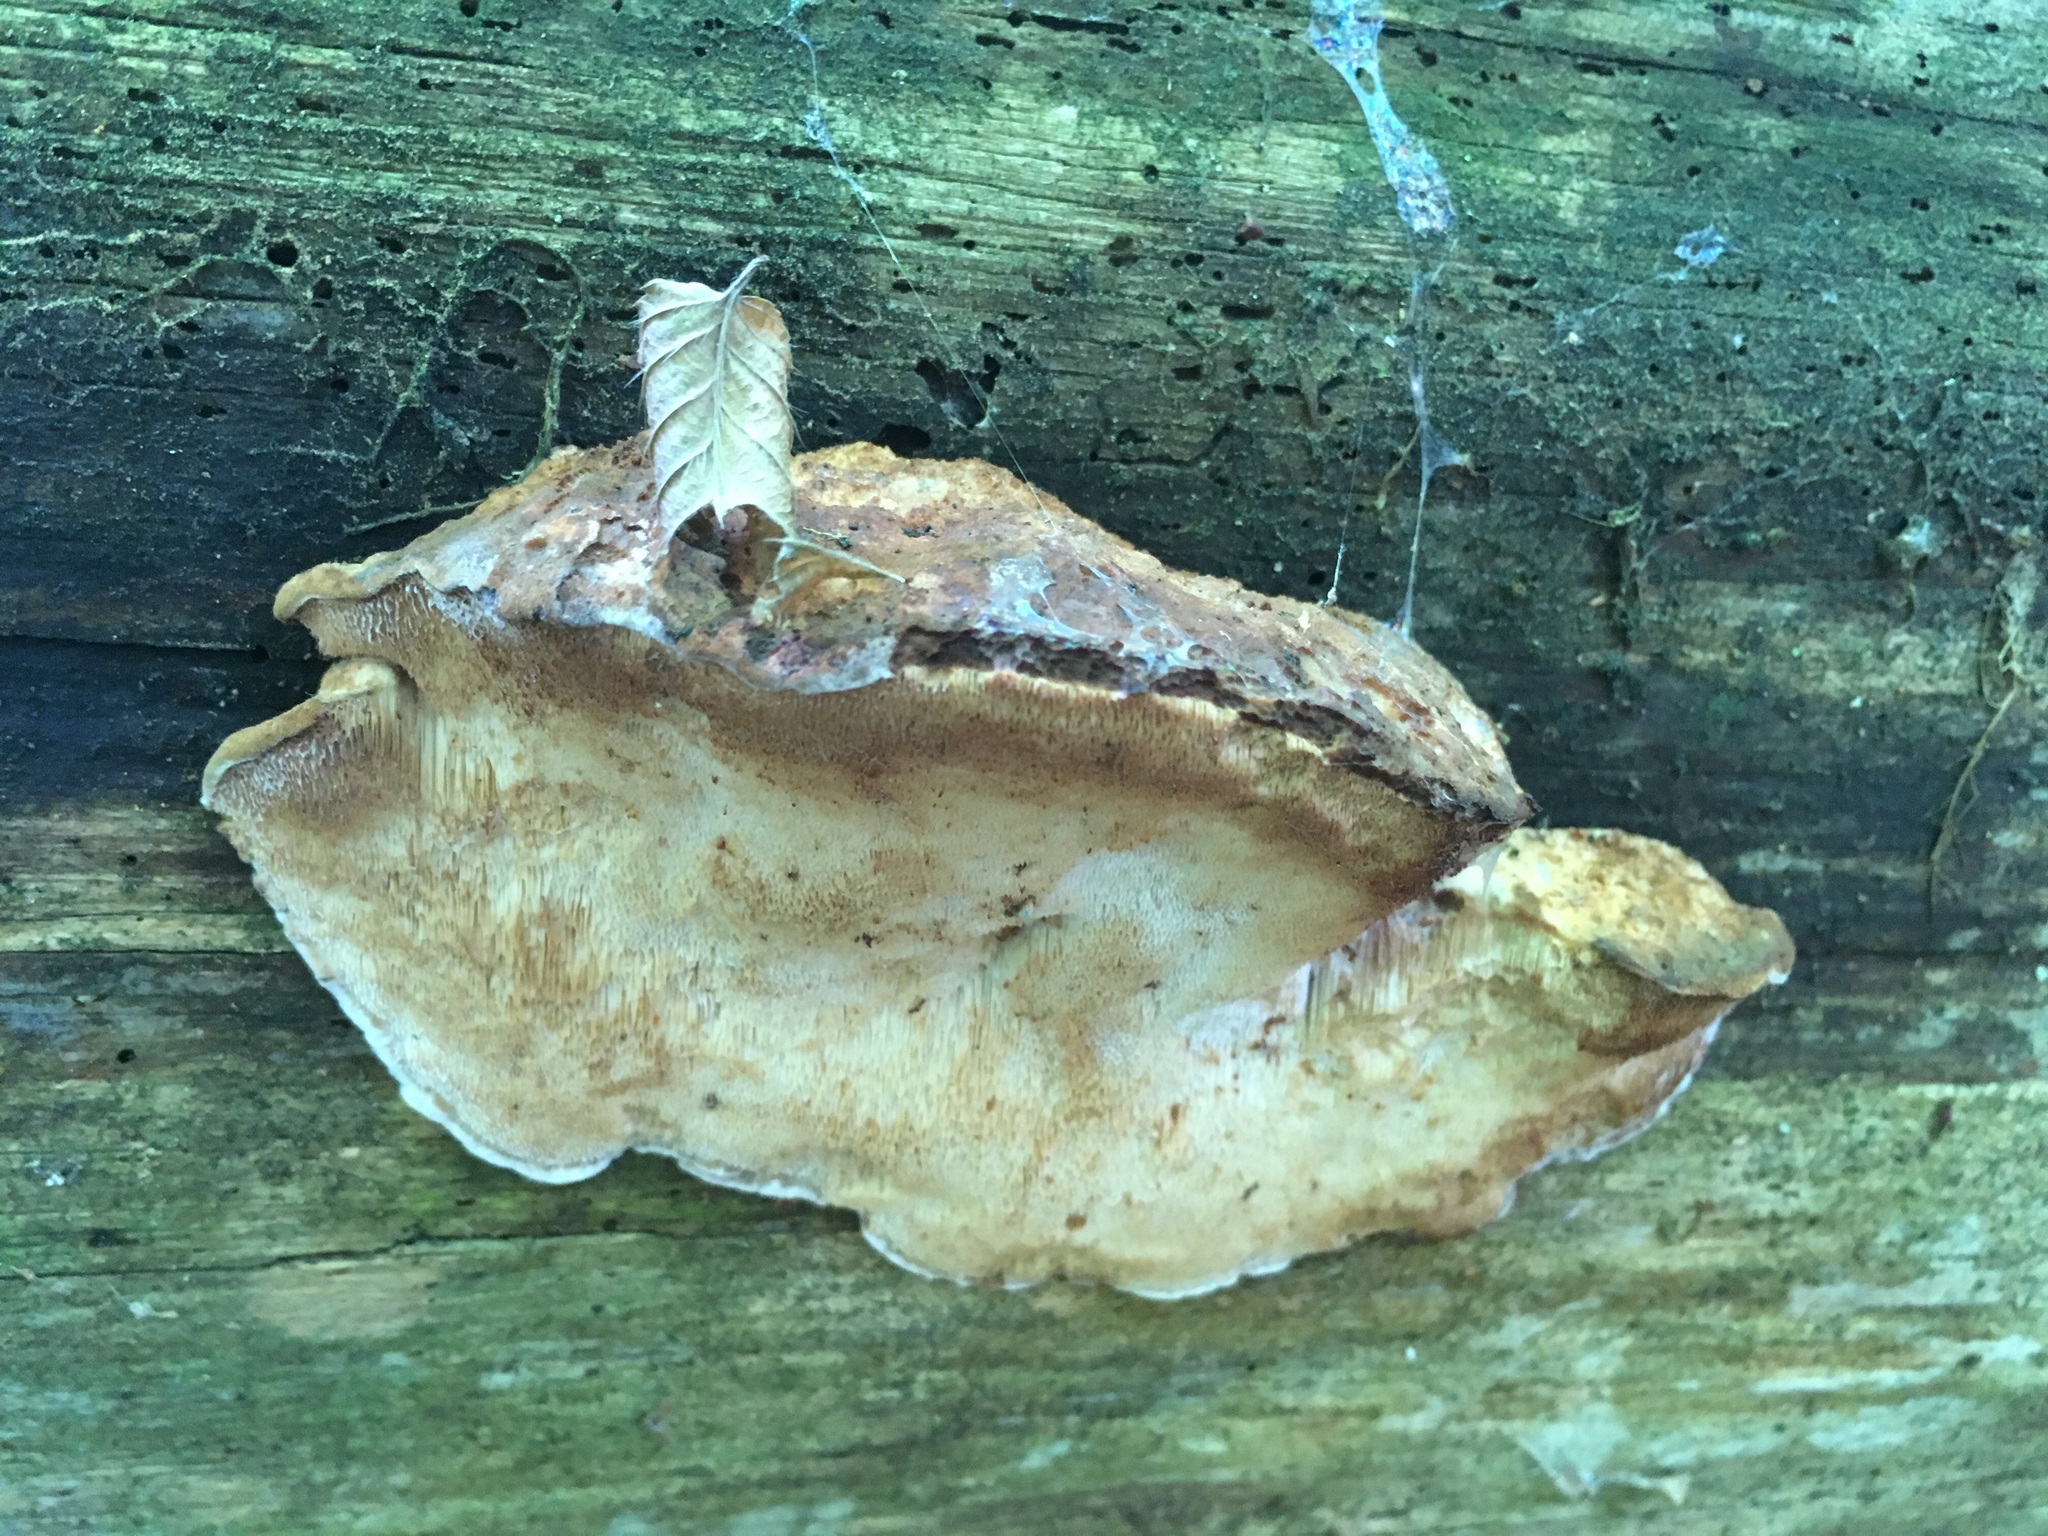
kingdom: Fungi
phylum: Basidiomycota
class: Agaricomycetes
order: Polyporales
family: Dacryobolaceae
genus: Amylocystis
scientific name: Amylocystis lapponica
